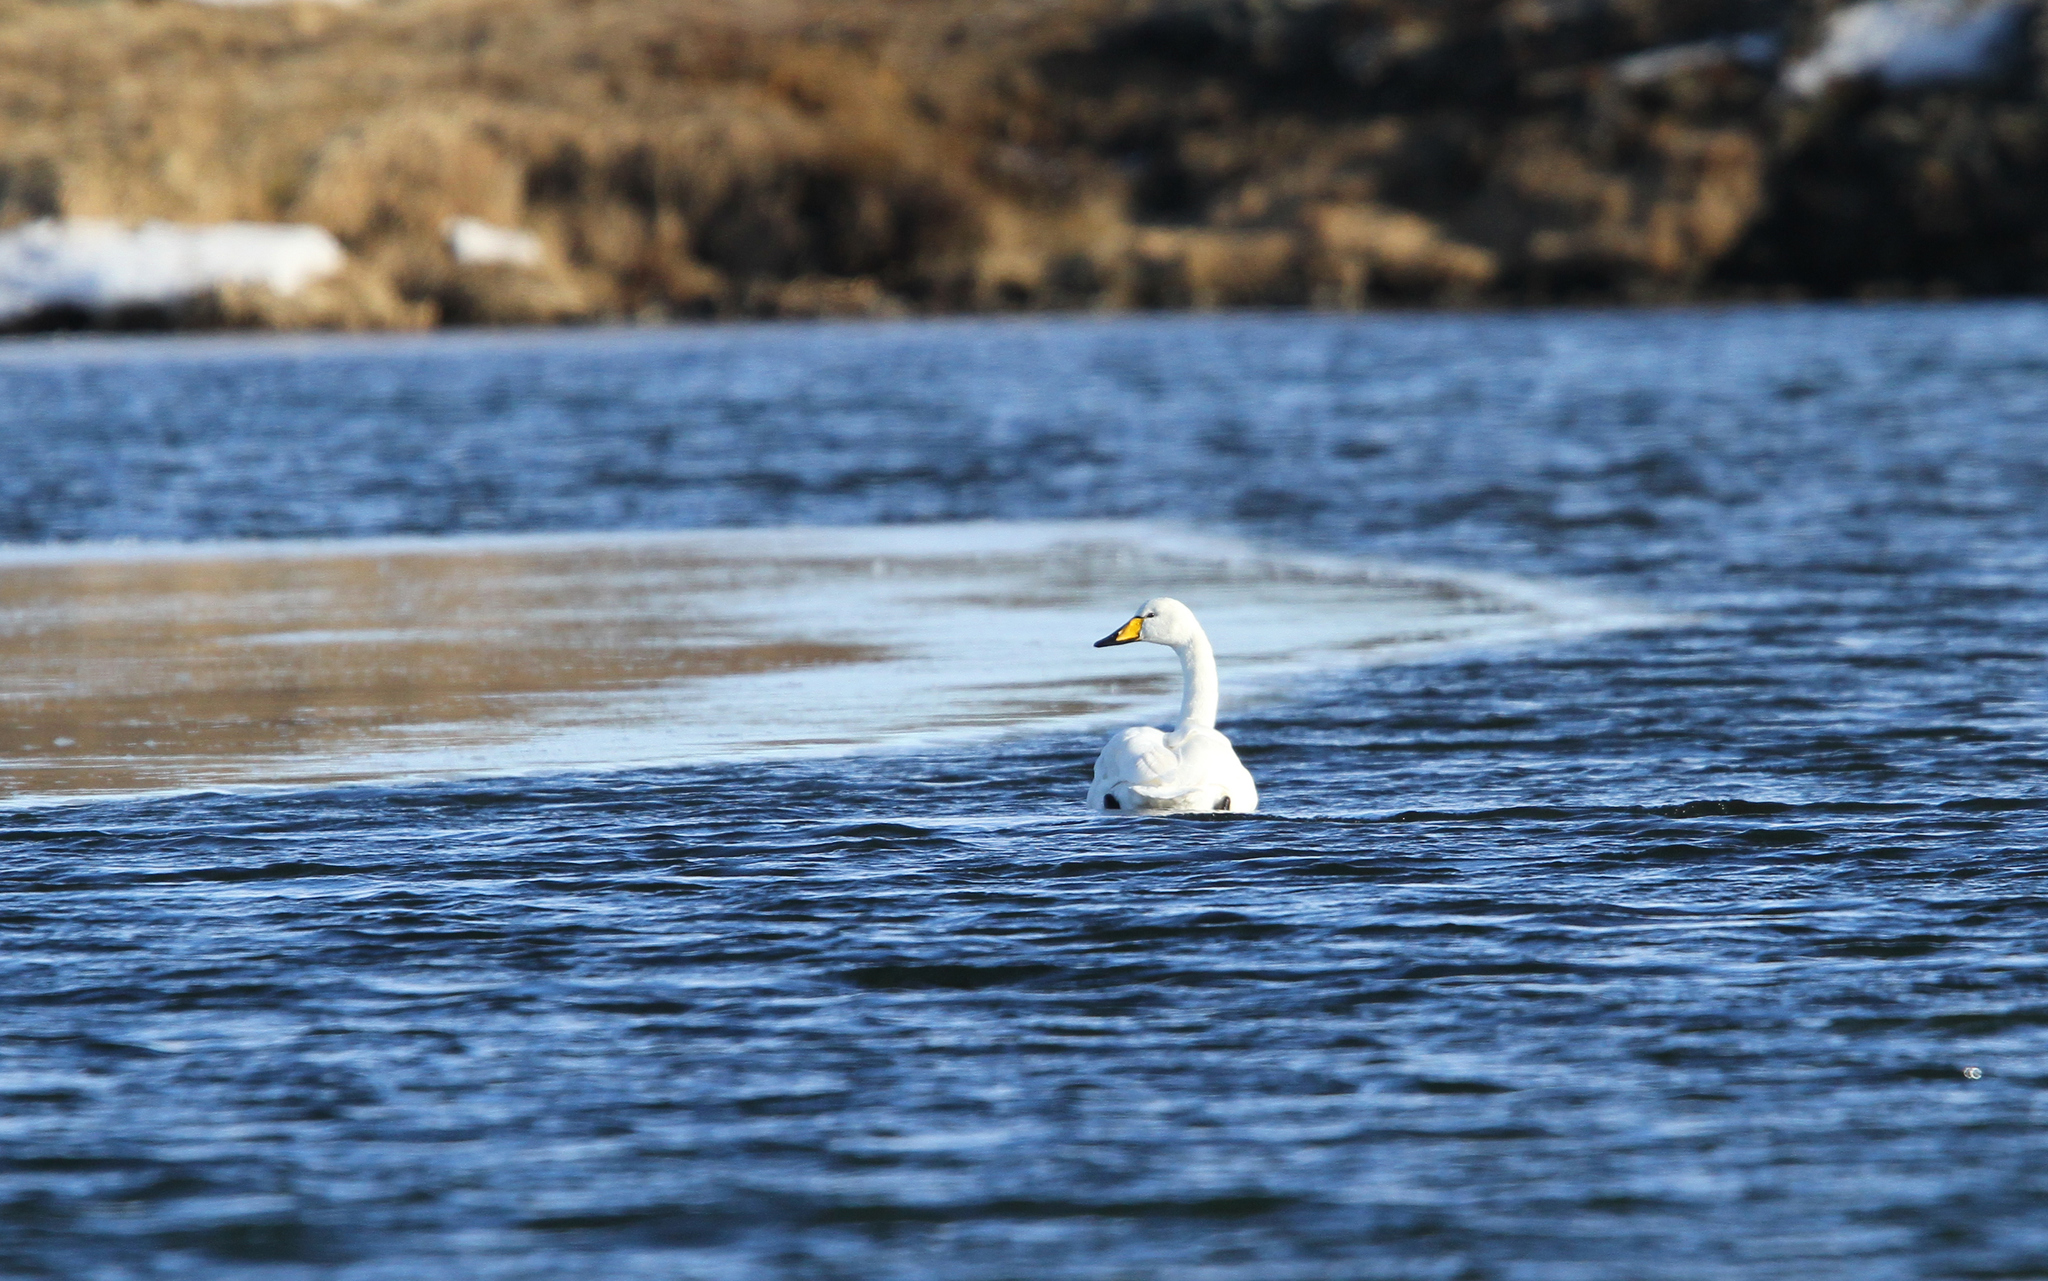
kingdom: Animalia
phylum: Chordata
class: Aves
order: Anseriformes
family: Anatidae
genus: Cygnus
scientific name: Cygnus cygnus
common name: Whooper swan
